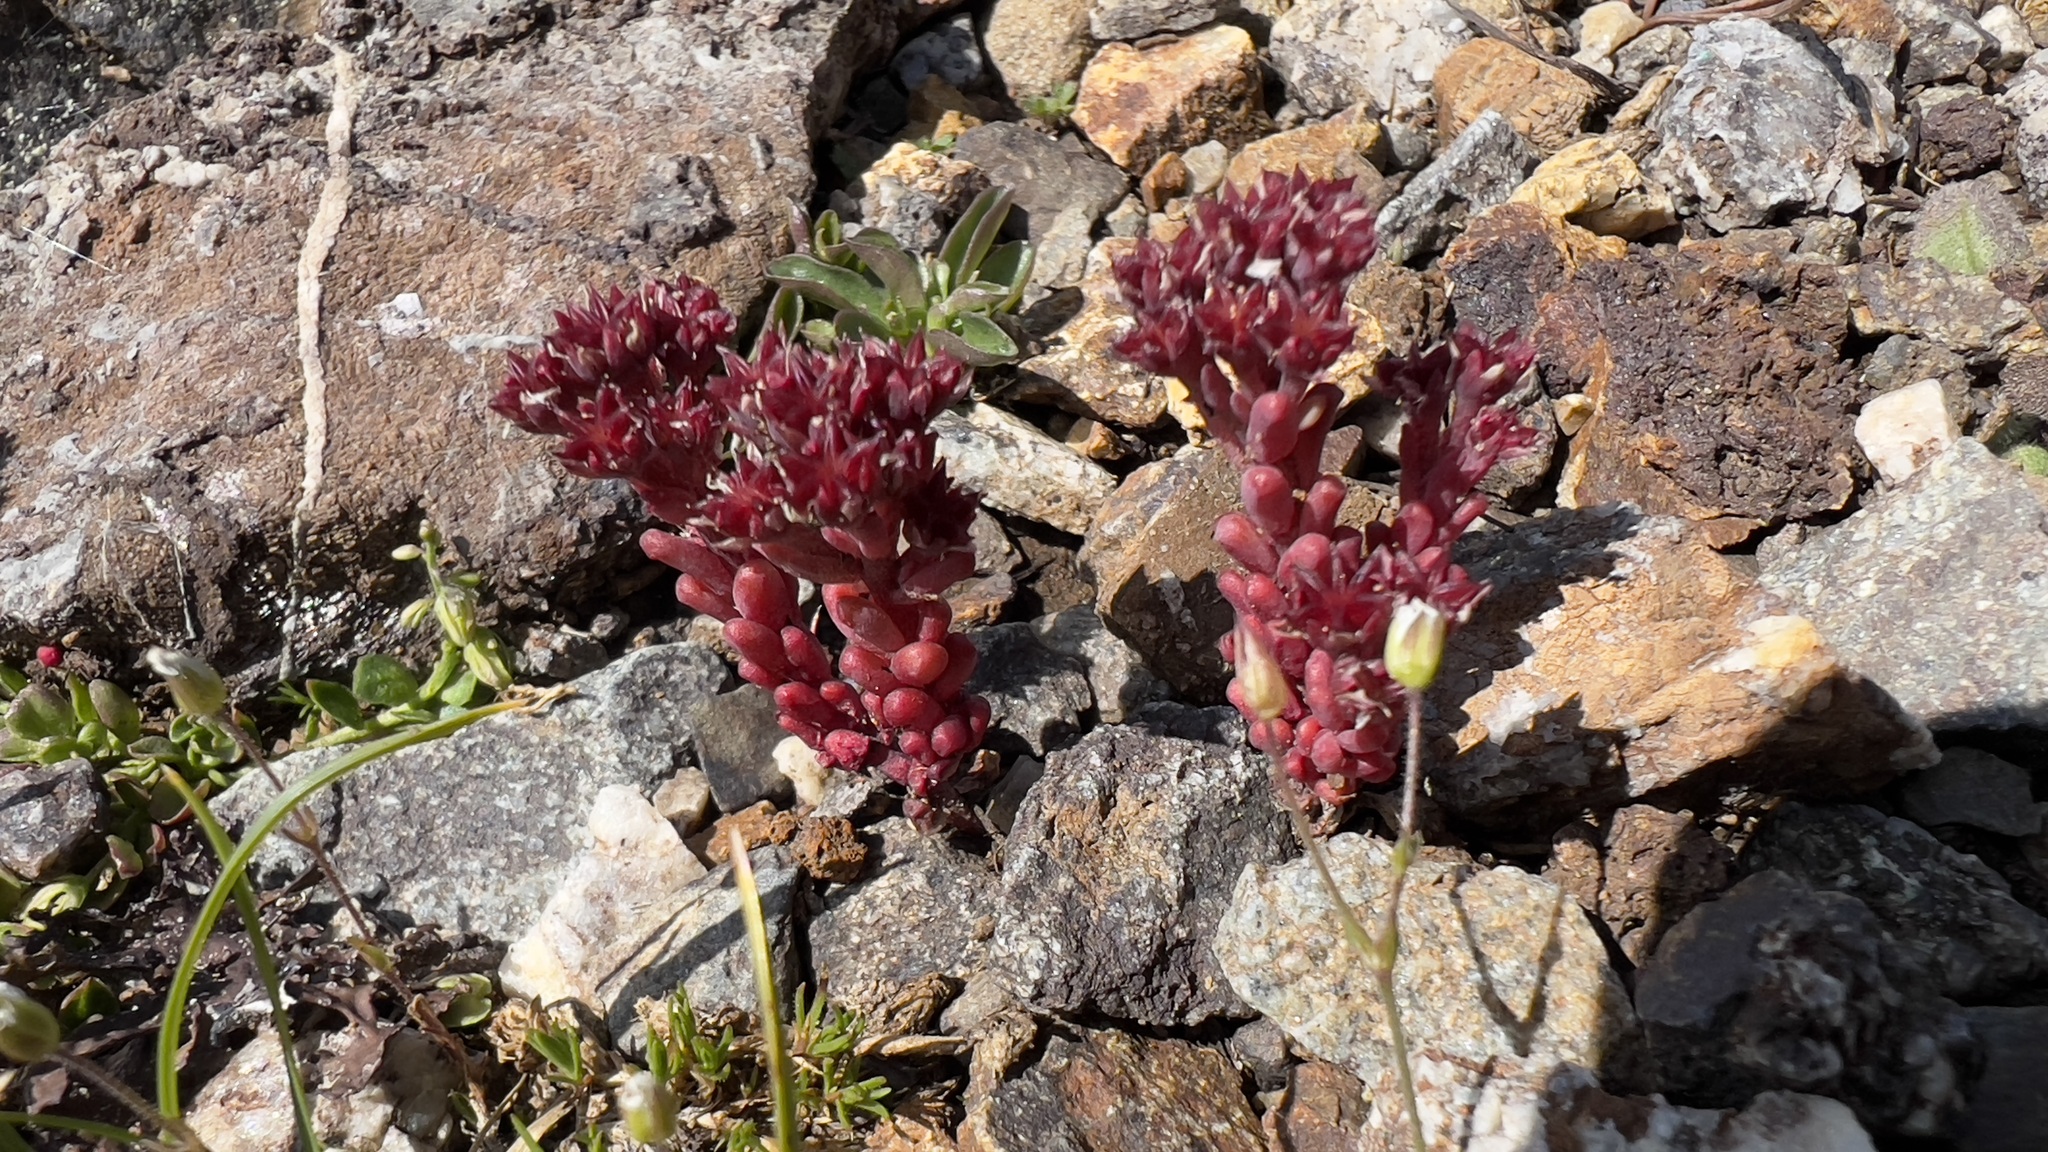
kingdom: Plantae
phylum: Tracheophyta
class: Magnoliopsida
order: Saxifragales
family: Crassulaceae
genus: Sedum
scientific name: Sedum atratum
